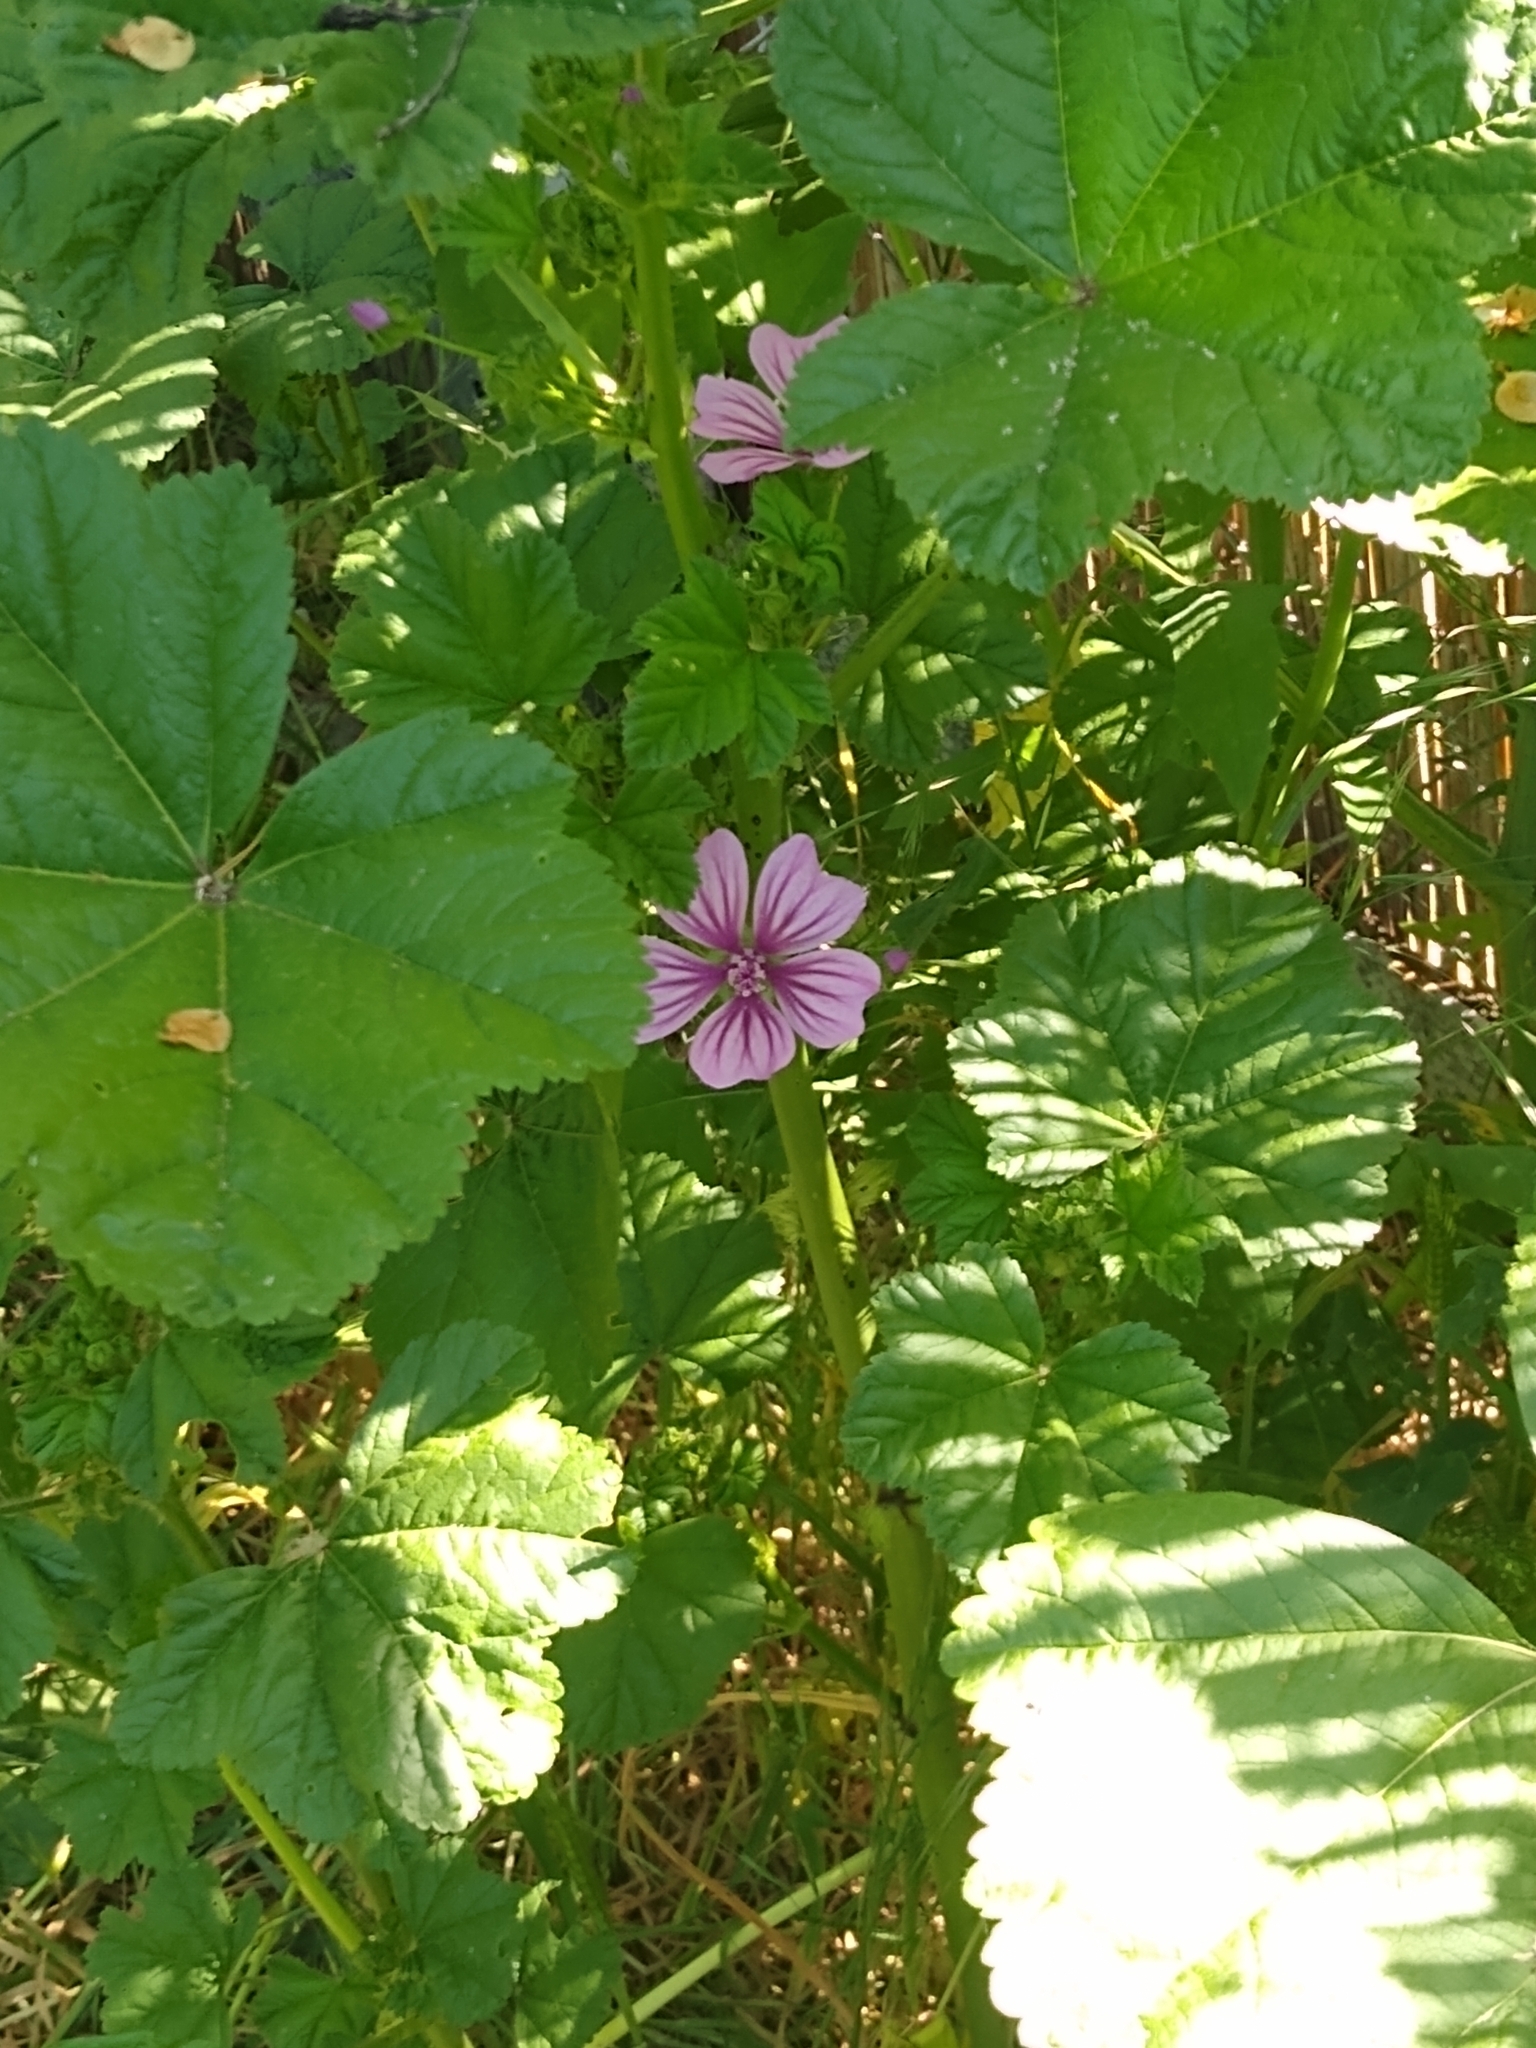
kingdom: Plantae
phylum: Tracheophyta
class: Magnoliopsida
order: Malvales
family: Malvaceae
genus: Malva
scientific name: Malva sylvestris
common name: Common mallow
